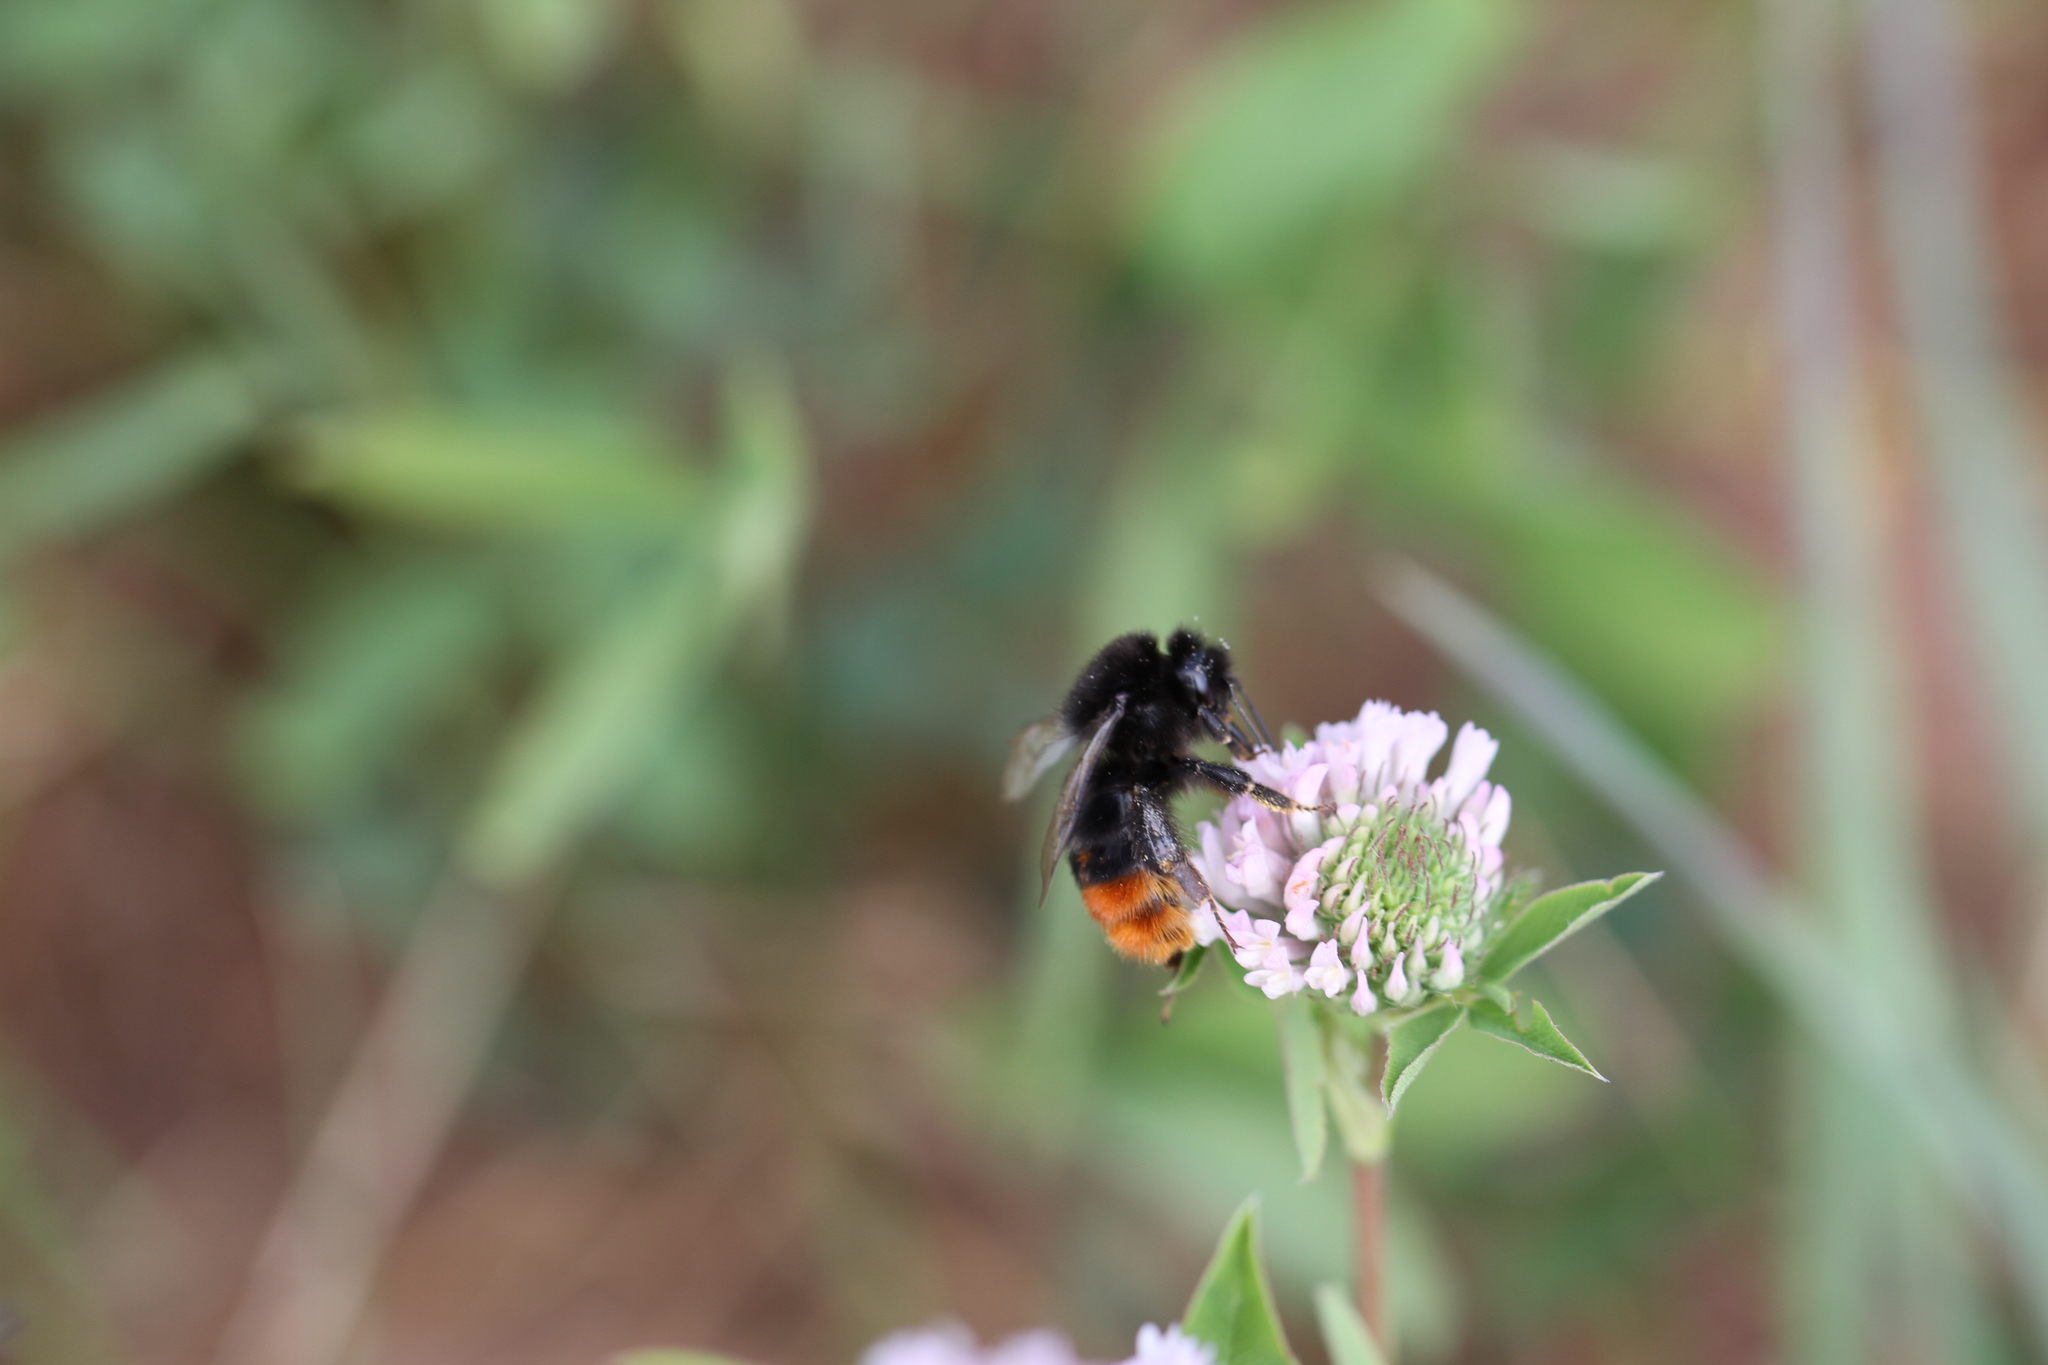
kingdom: Animalia
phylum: Arthropoda
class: Insecta
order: Hymenoptera
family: Apidae
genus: Bombus
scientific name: Bombus lapidarius
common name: Large red-tailed humble-bee
